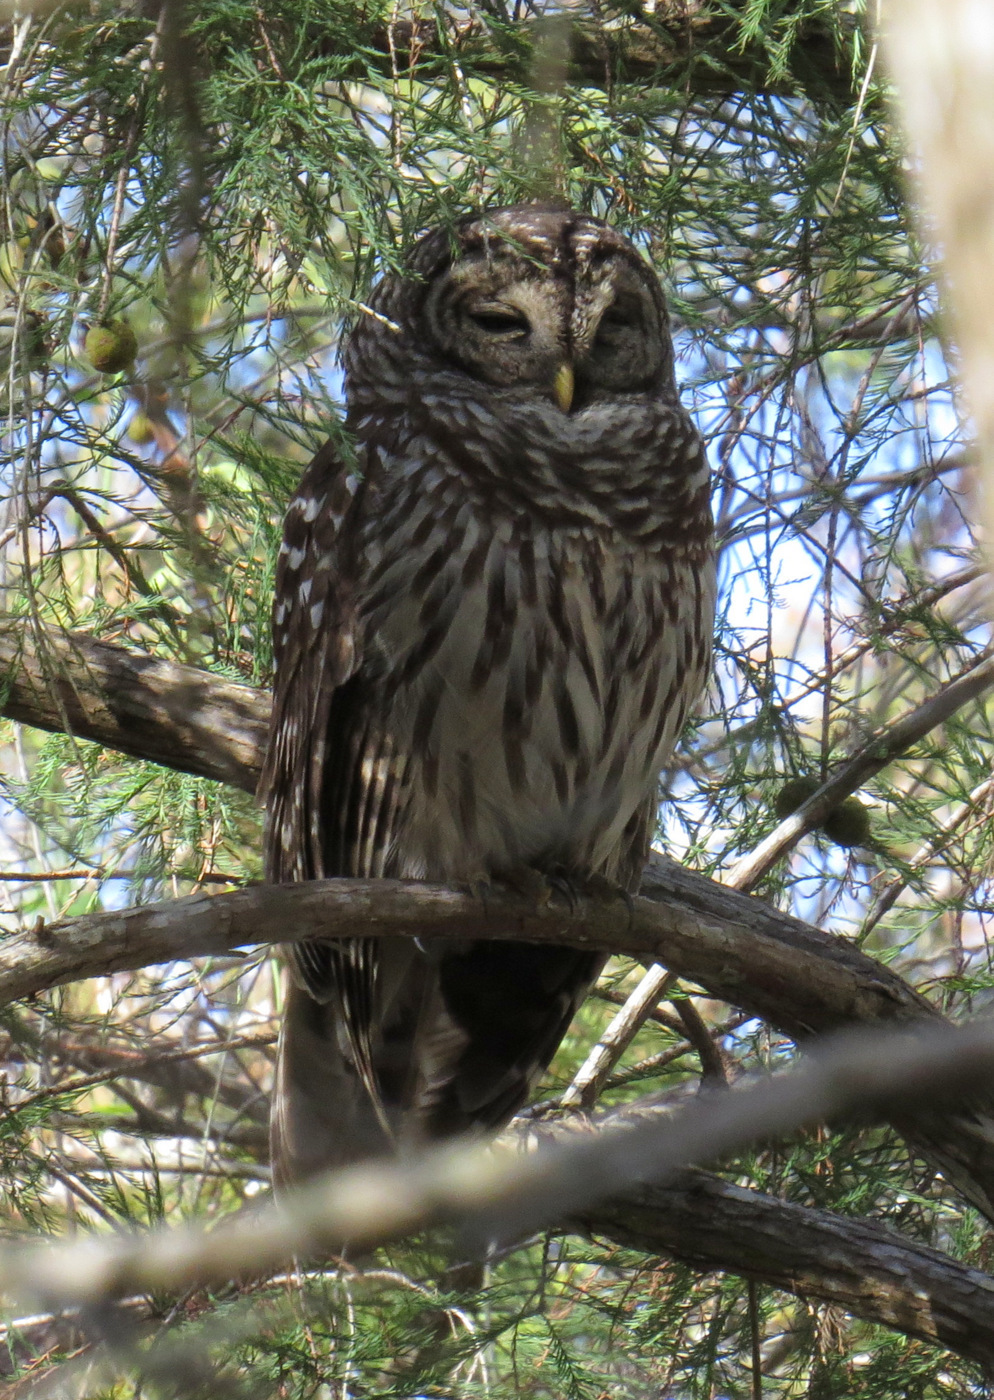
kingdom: Animalia
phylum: Chordata
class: Aves
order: Strigiformes
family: Strigidae
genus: Strix
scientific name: Strix varia
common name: Barred owl
